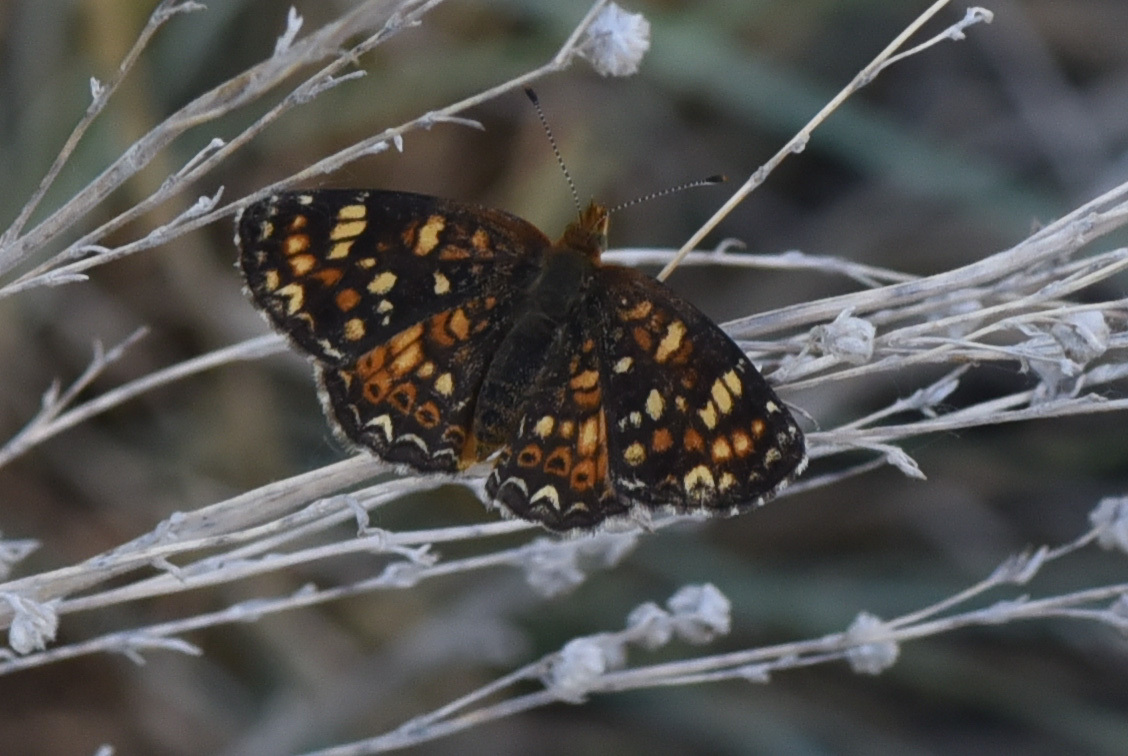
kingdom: Animalia
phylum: Arthropoda
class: Insecta
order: Lepidoptera
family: Nymphalidae
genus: Phyciodes
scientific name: Phyciodes tharos
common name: Pearl crescent
